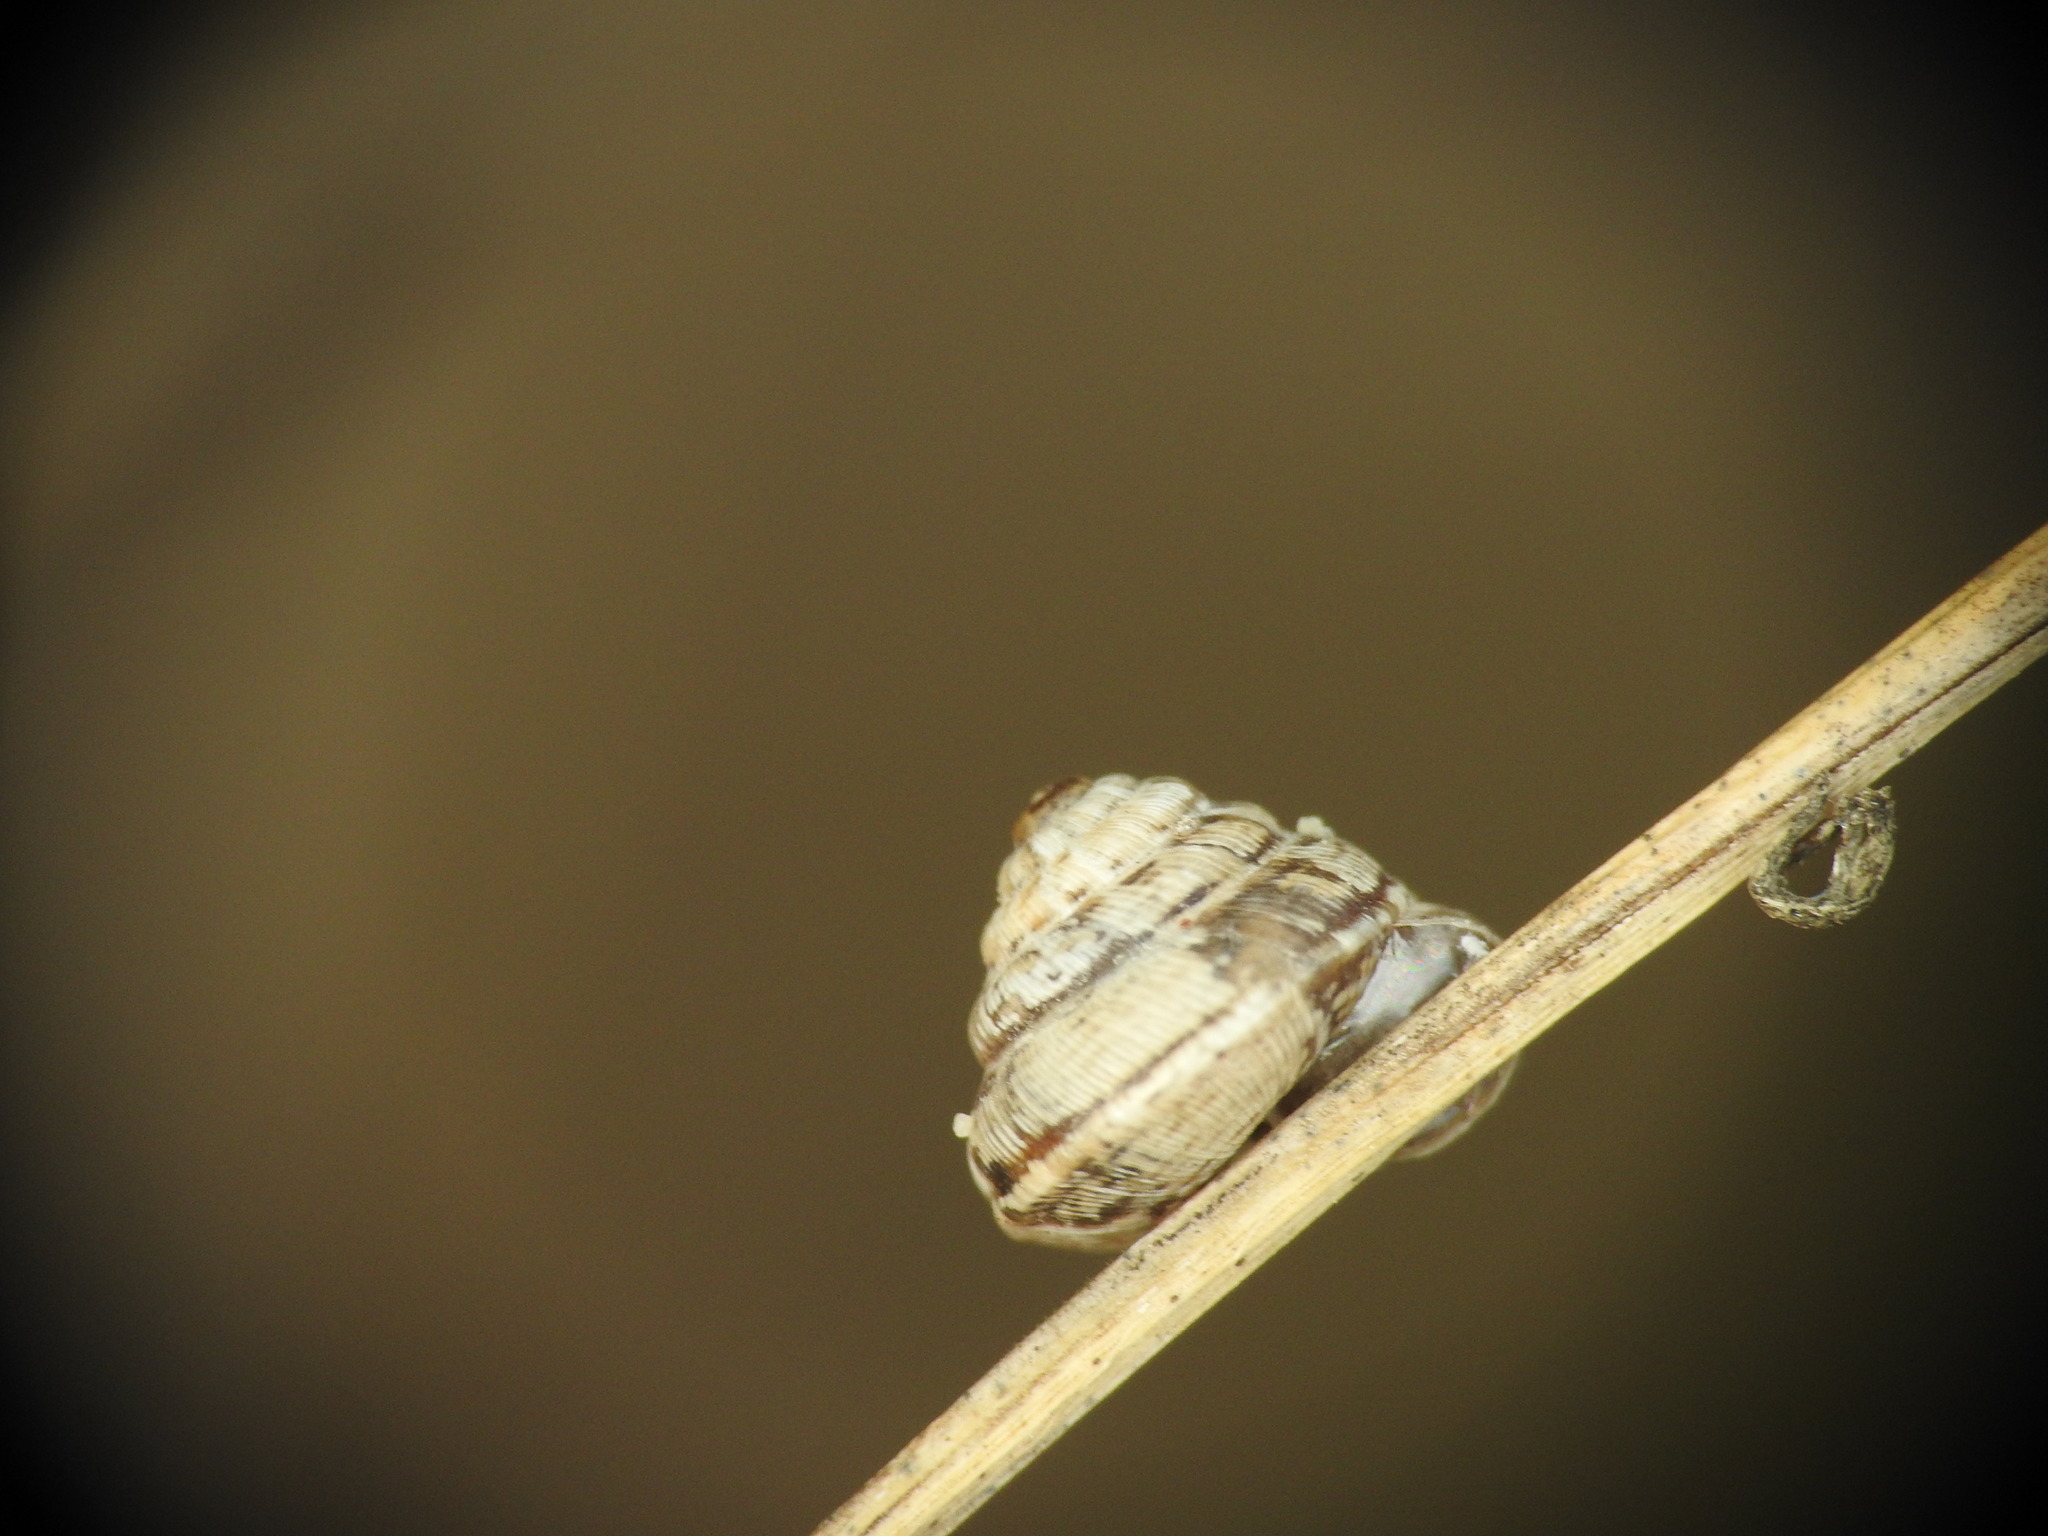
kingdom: Animalia
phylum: Mollusca
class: Gastropoda
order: Stylommatophora
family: Geomitridae
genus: Trochoidea
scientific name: Trochoidea trochoides
